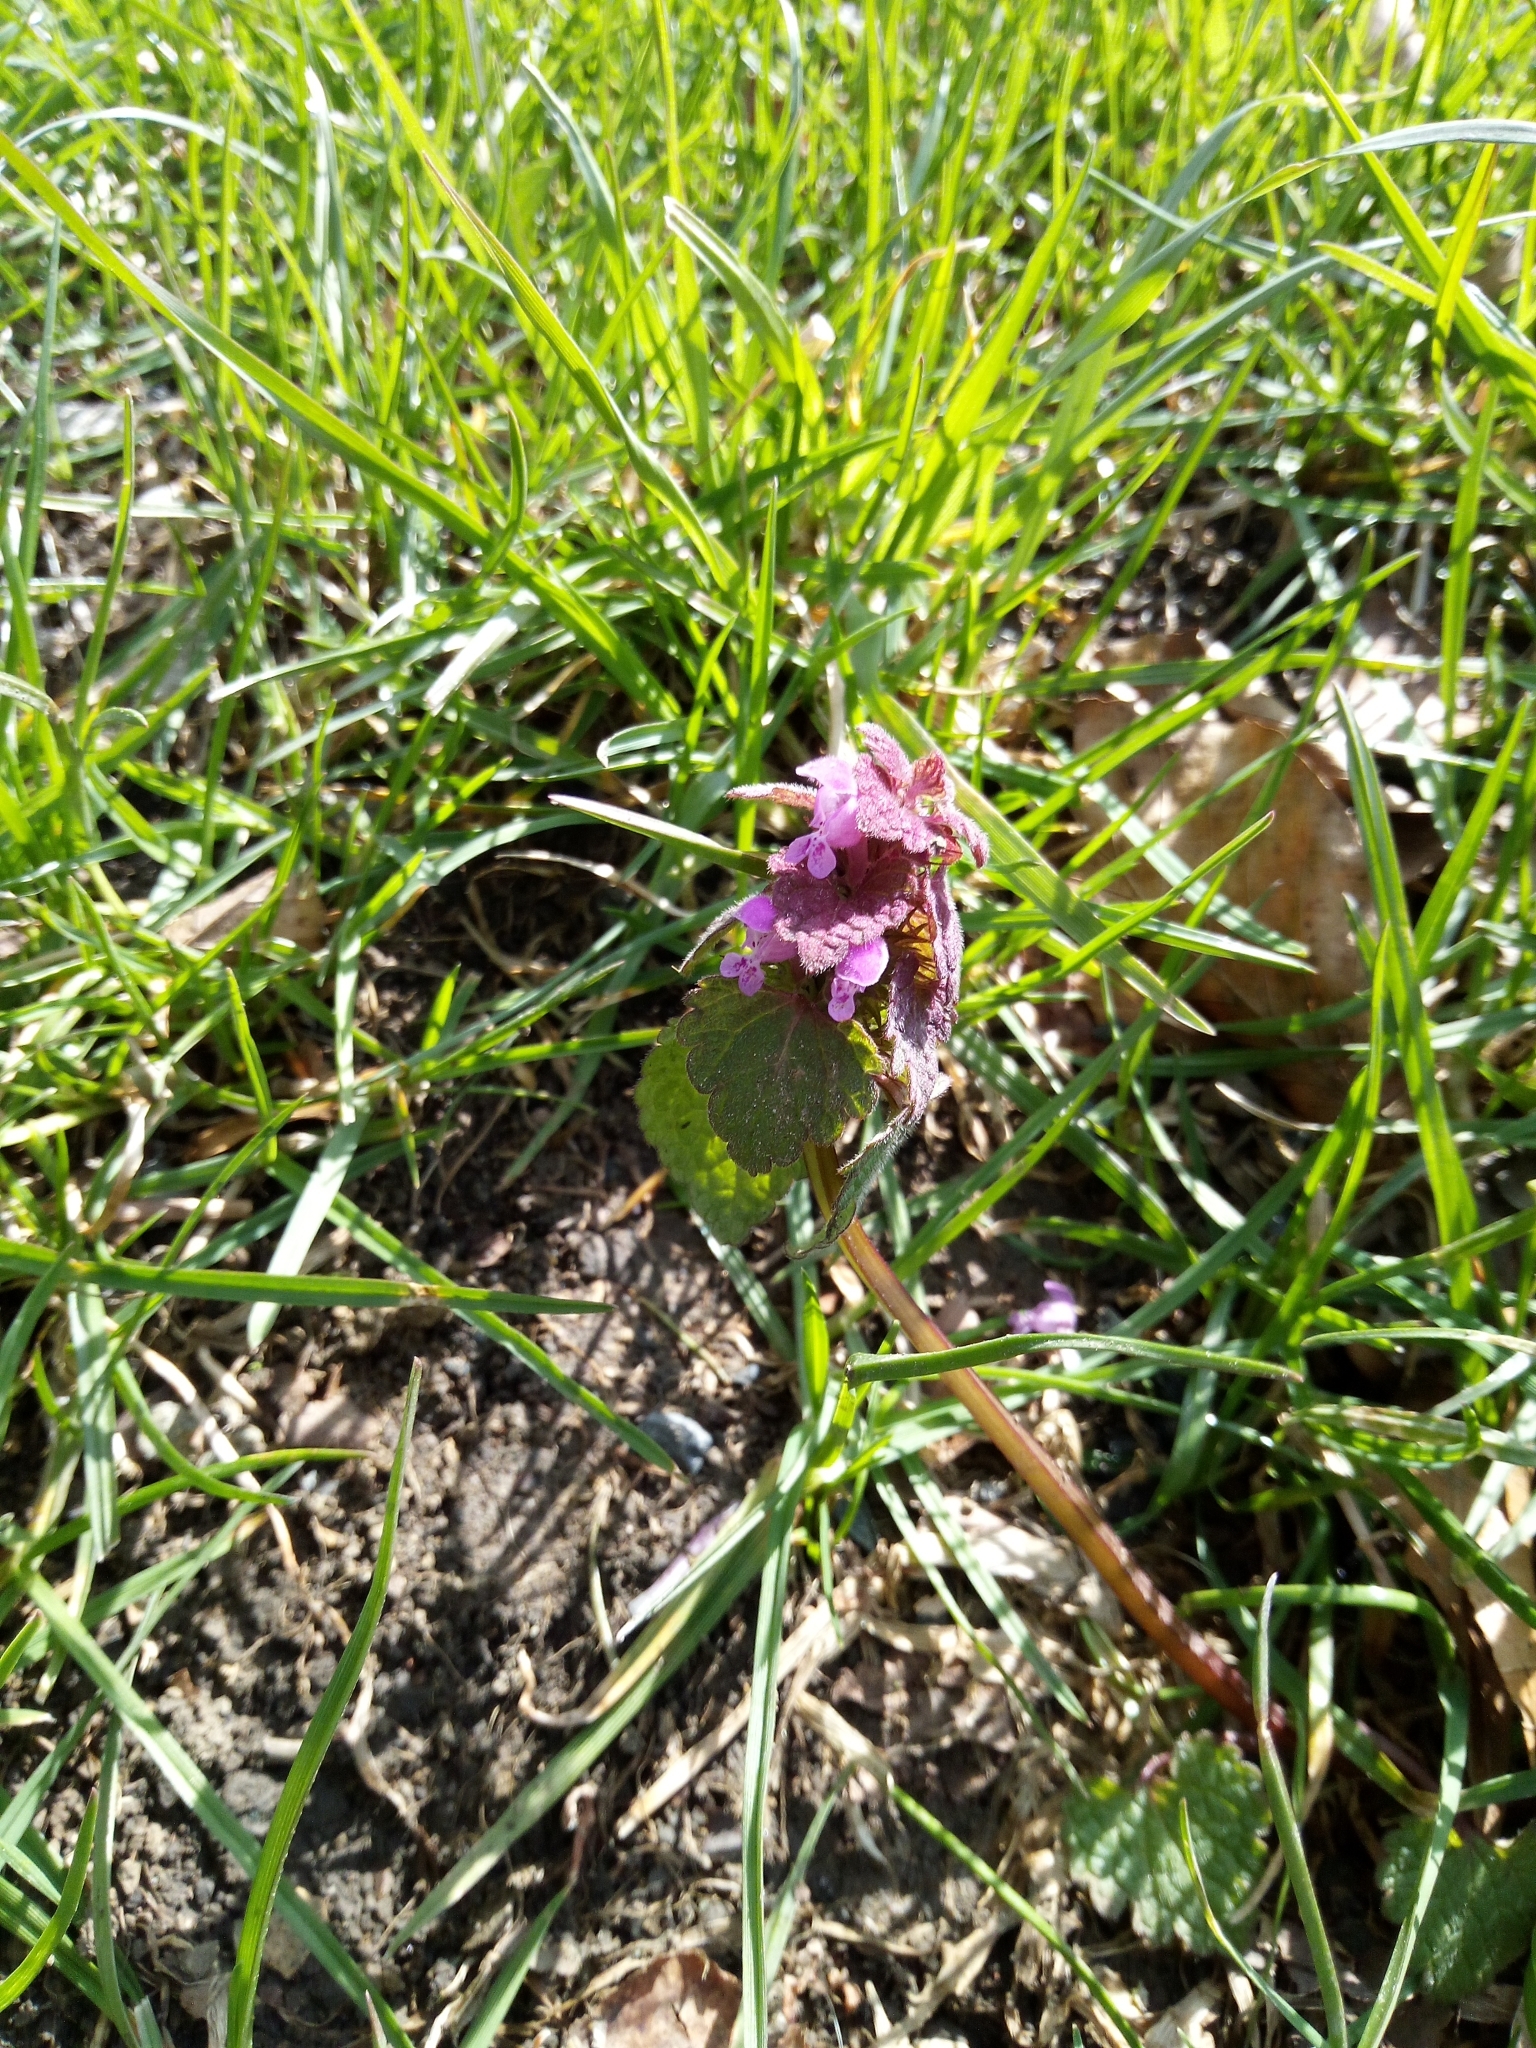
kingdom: Plantae
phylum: Tracheophyta
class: Magnoliopsida
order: Lamiales
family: Lamiaceae
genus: Lamium
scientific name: Lamium purpureum
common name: Red dead-nettle
